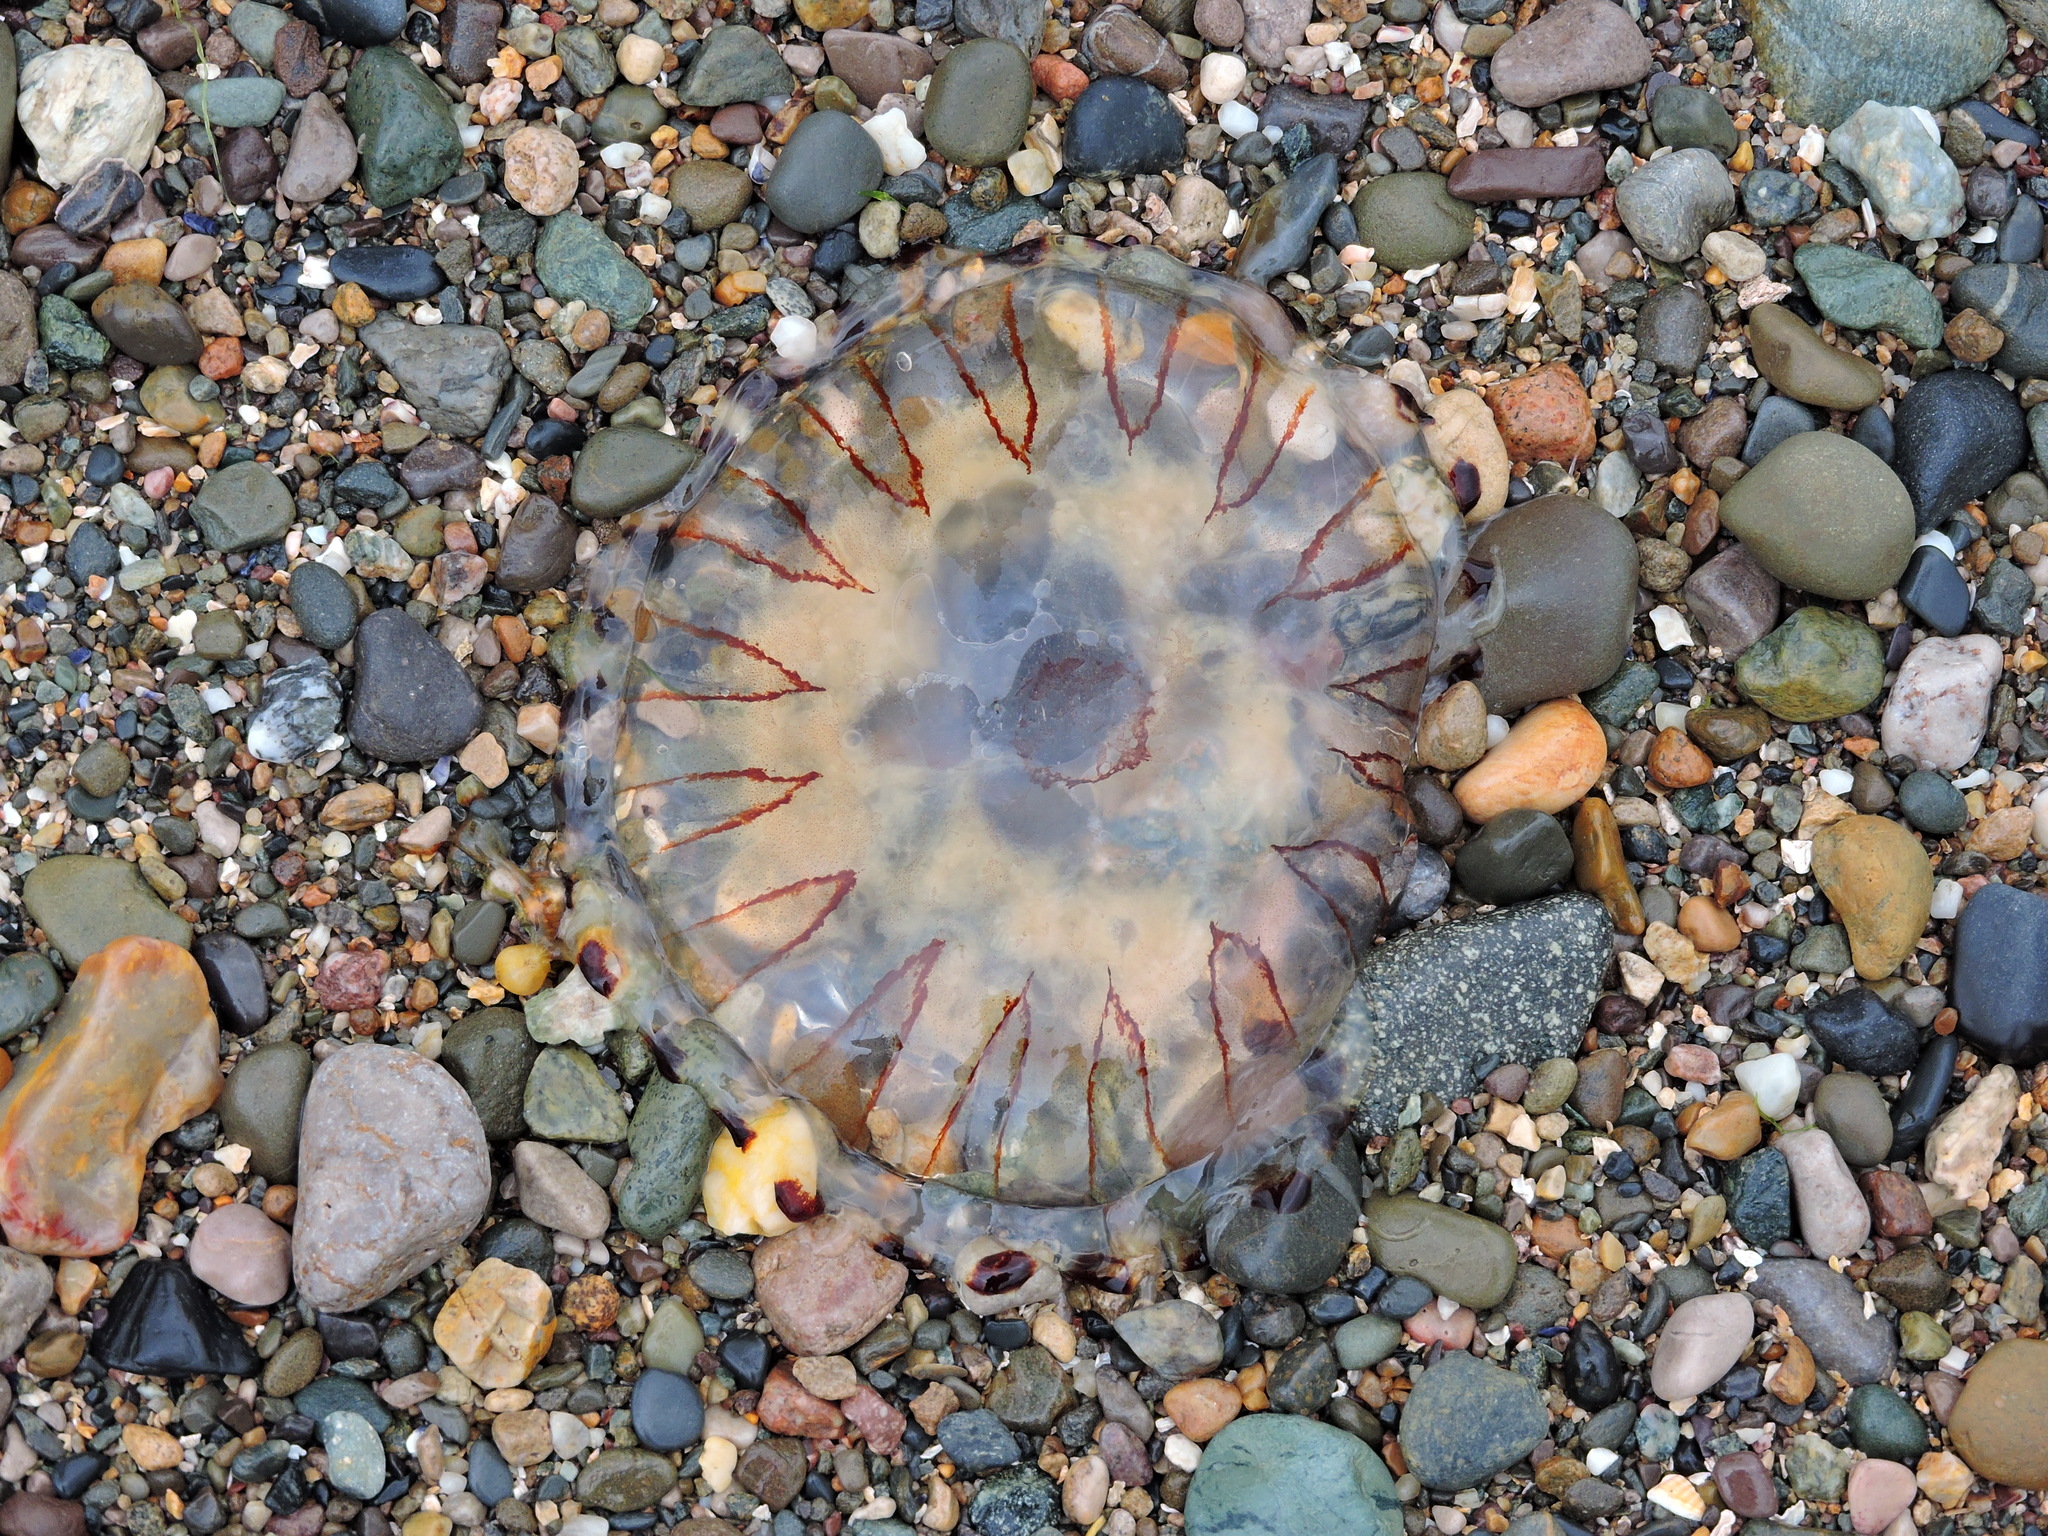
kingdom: Animalia
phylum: Cnidaria
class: Scyphozoa
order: Semaeostomeae
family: Pelagiidae
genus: Chrysaora
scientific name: Chrysaora hysoscella
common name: Compass jellyfish
